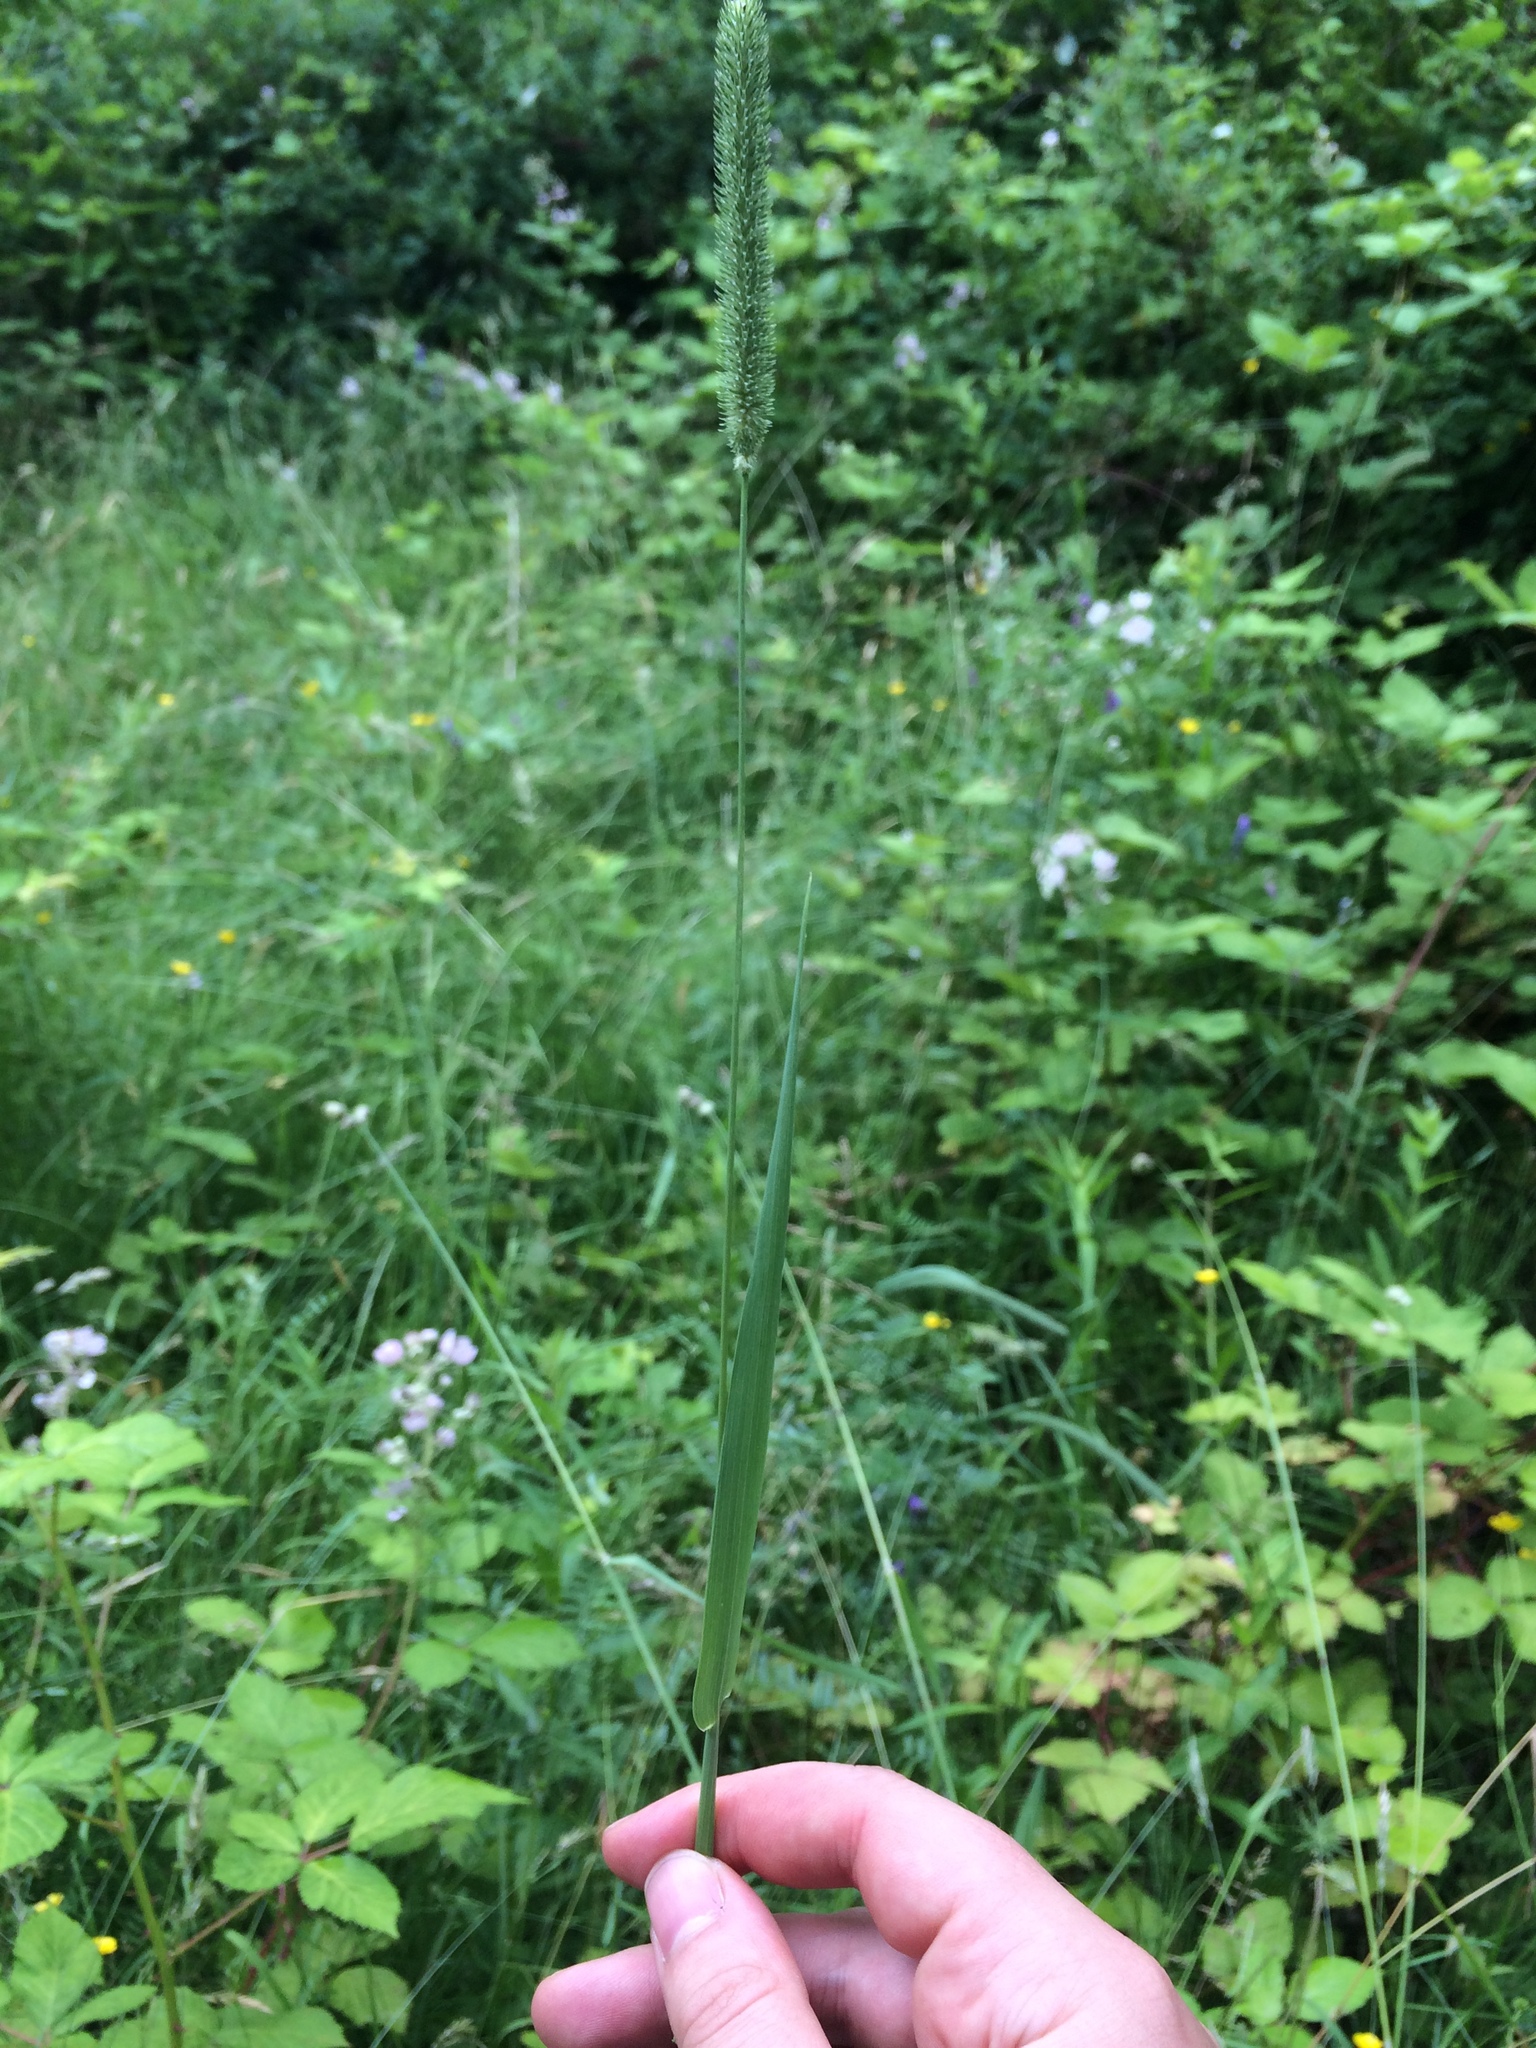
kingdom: Plantae
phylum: Tracheophyta
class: Liliopsida
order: Poales
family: Poaceae
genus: Phleum
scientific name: Phleum pratense
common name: Timothy grass
